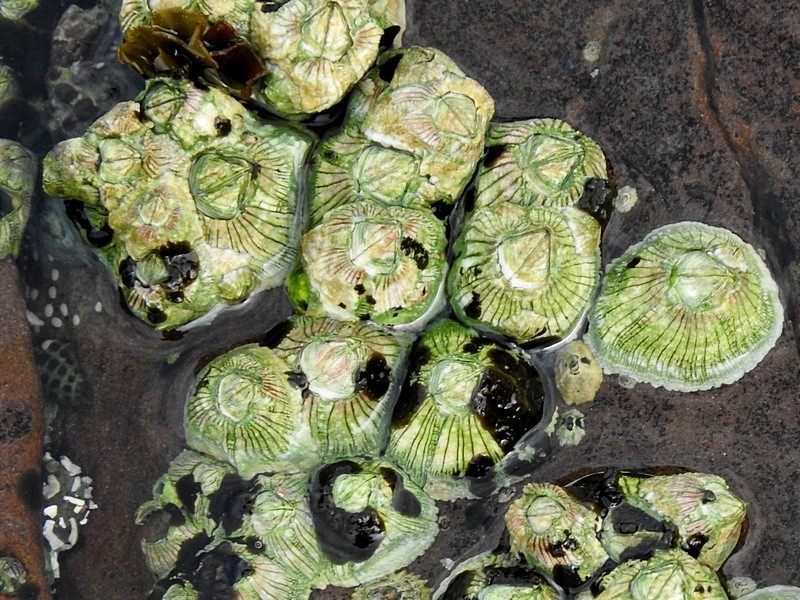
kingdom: Animalia
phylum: Arthropoda
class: Maxillopoda
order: Sessilia
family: Tetraclitidae
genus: Tesseropora
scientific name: Tesseropora rosea
